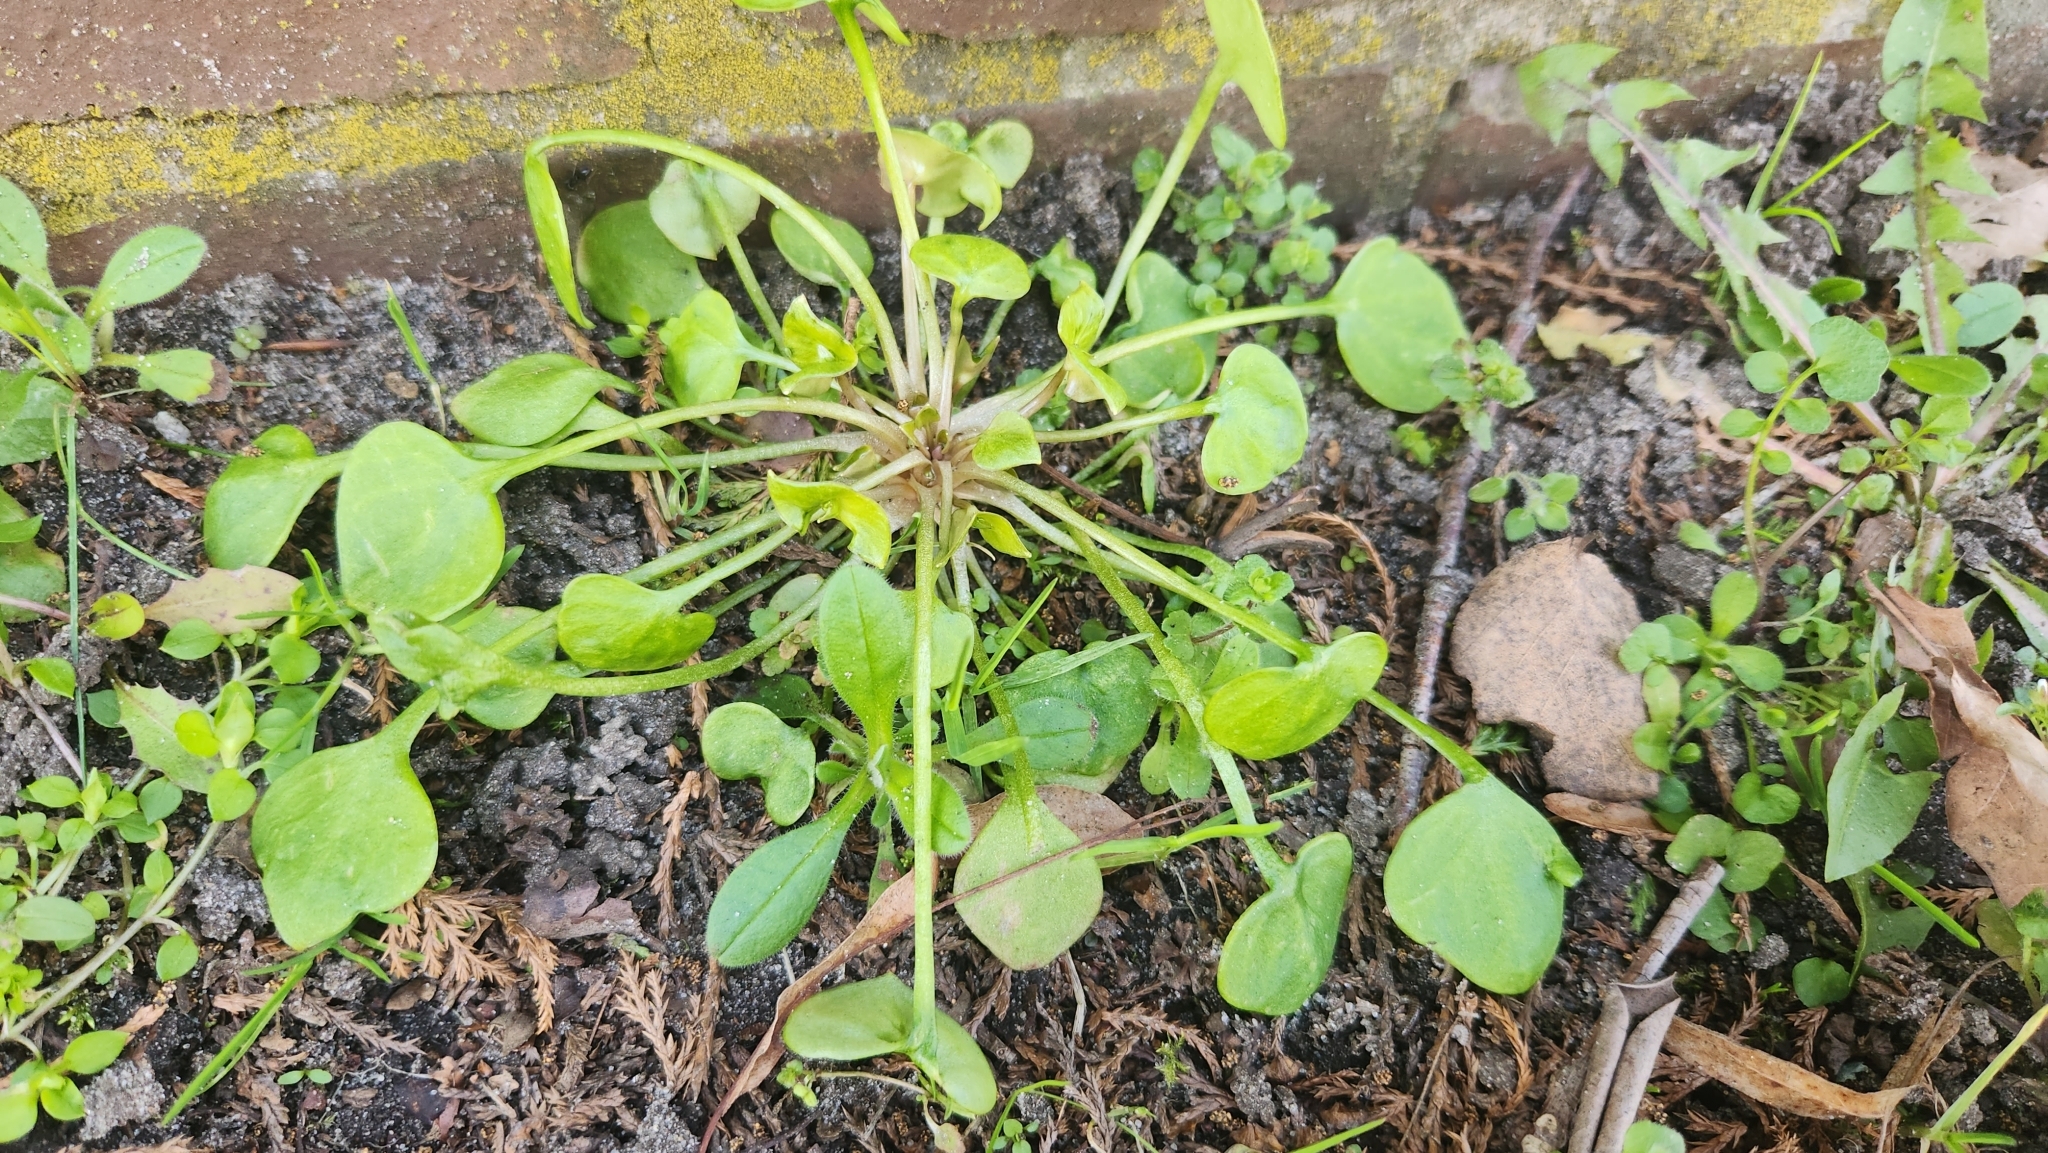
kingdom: Plantae
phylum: Tracheophyta
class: Magnoliopsida
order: Caryophyllales
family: Montiaceae
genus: Claytonia
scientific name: Claytonia perfoliata
